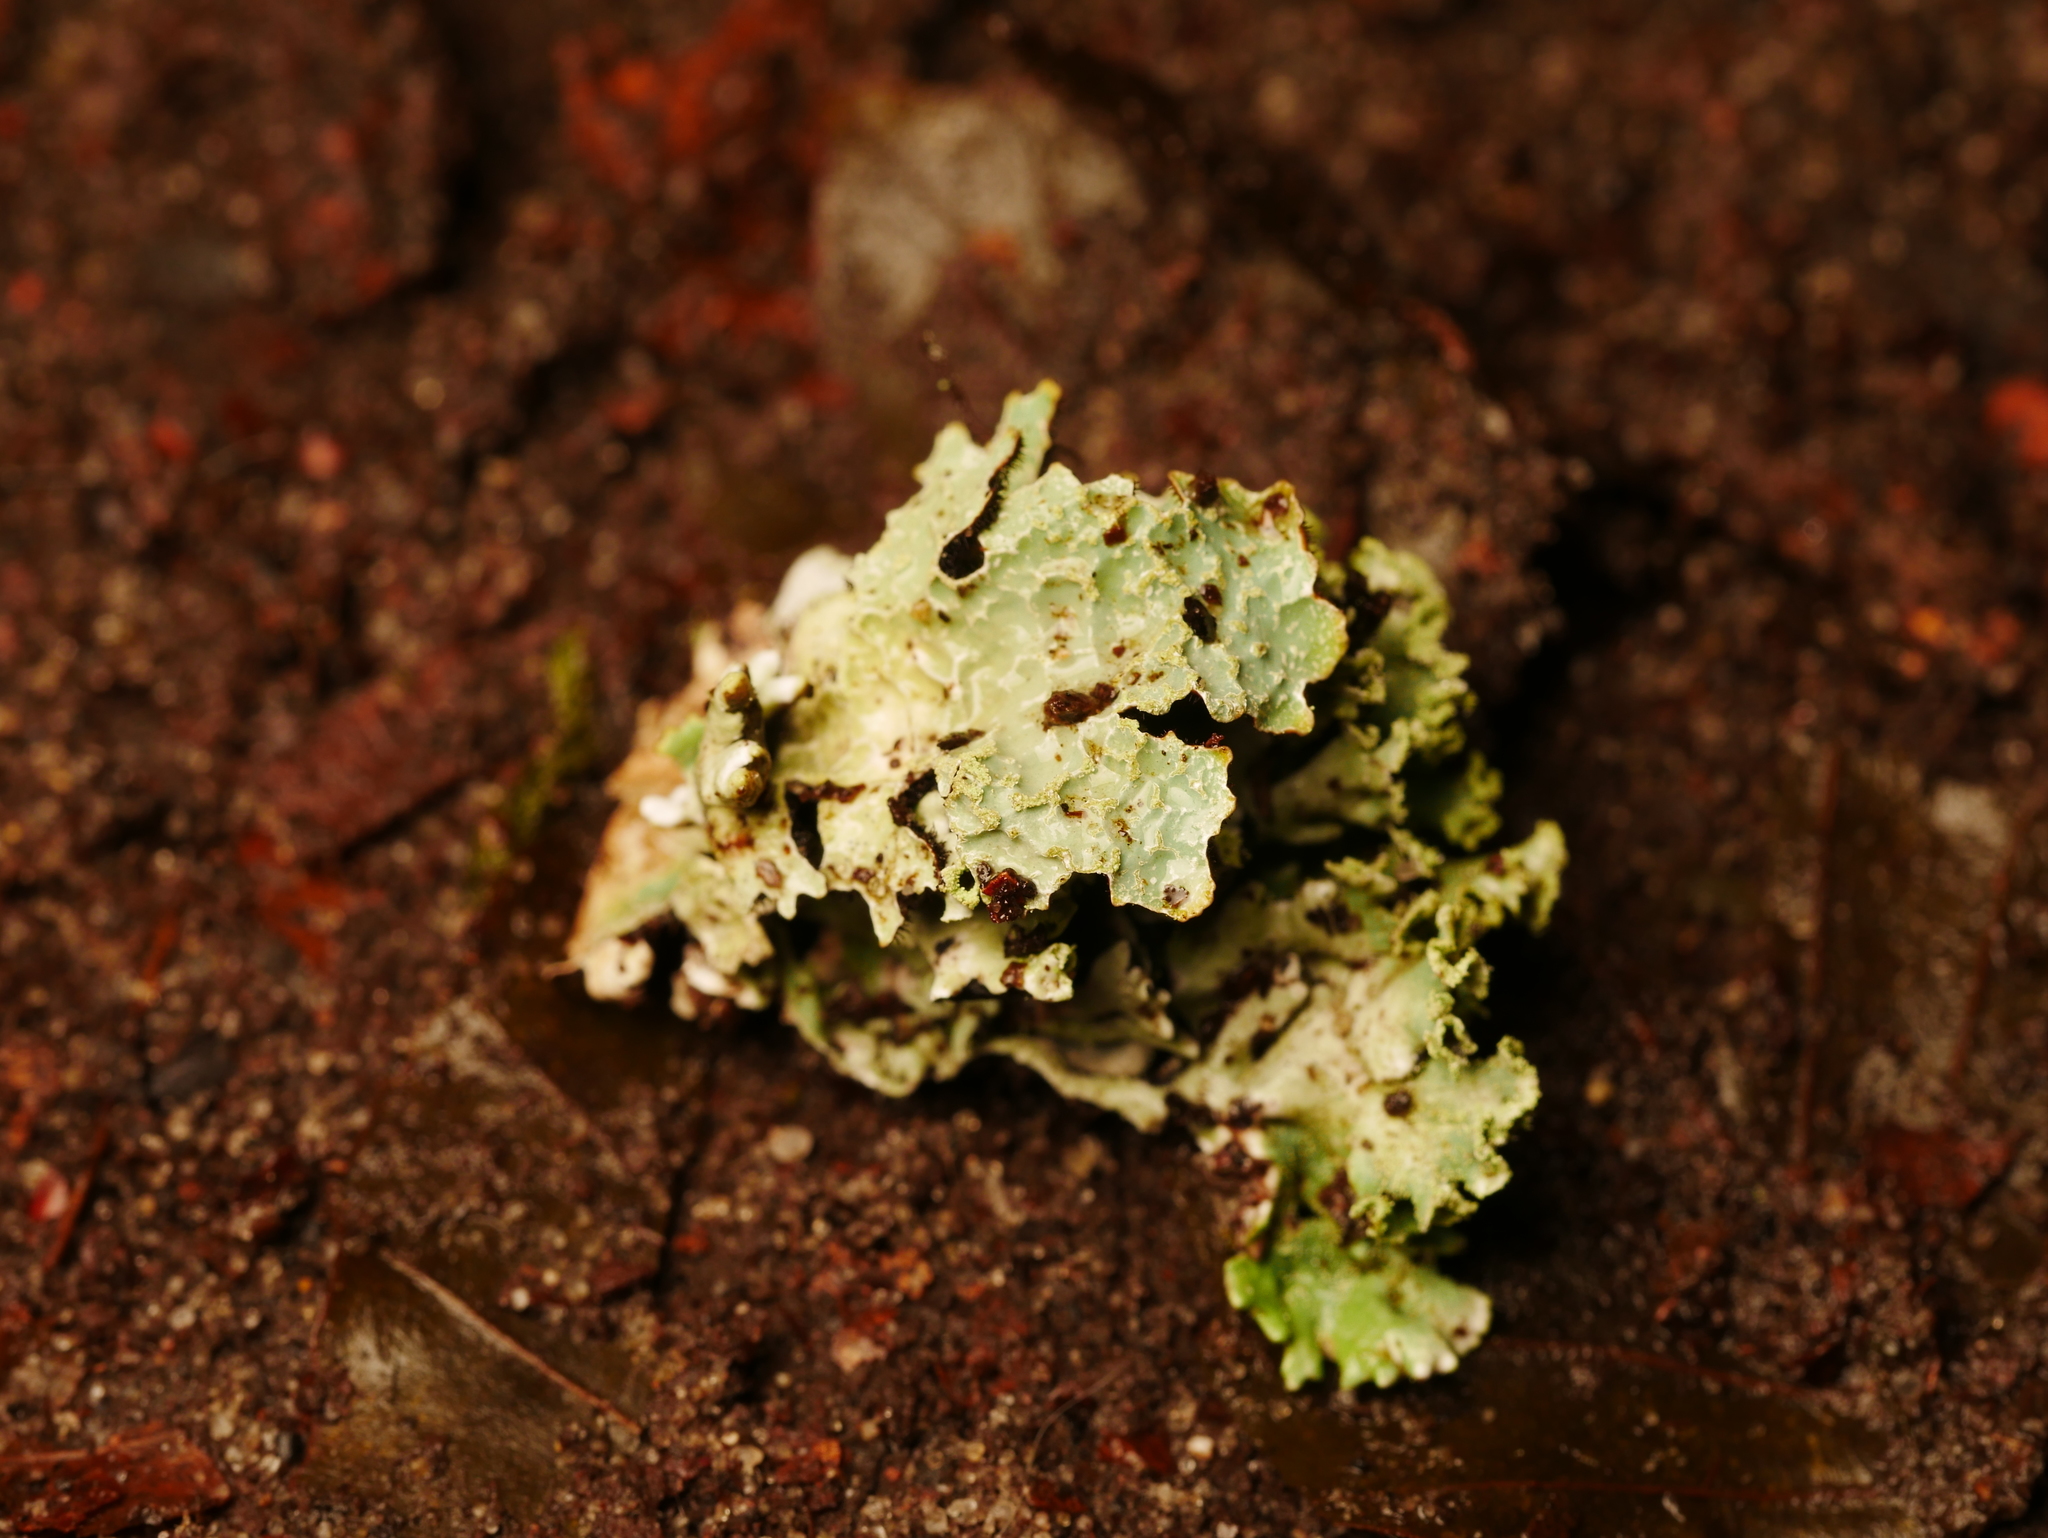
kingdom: Fungi
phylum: Ascomycota
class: Lecanoromycetes
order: Lecanorales
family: Parmeliaceae
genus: Parmelia
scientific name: Parmelia sulcata
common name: Netted shield lichen
